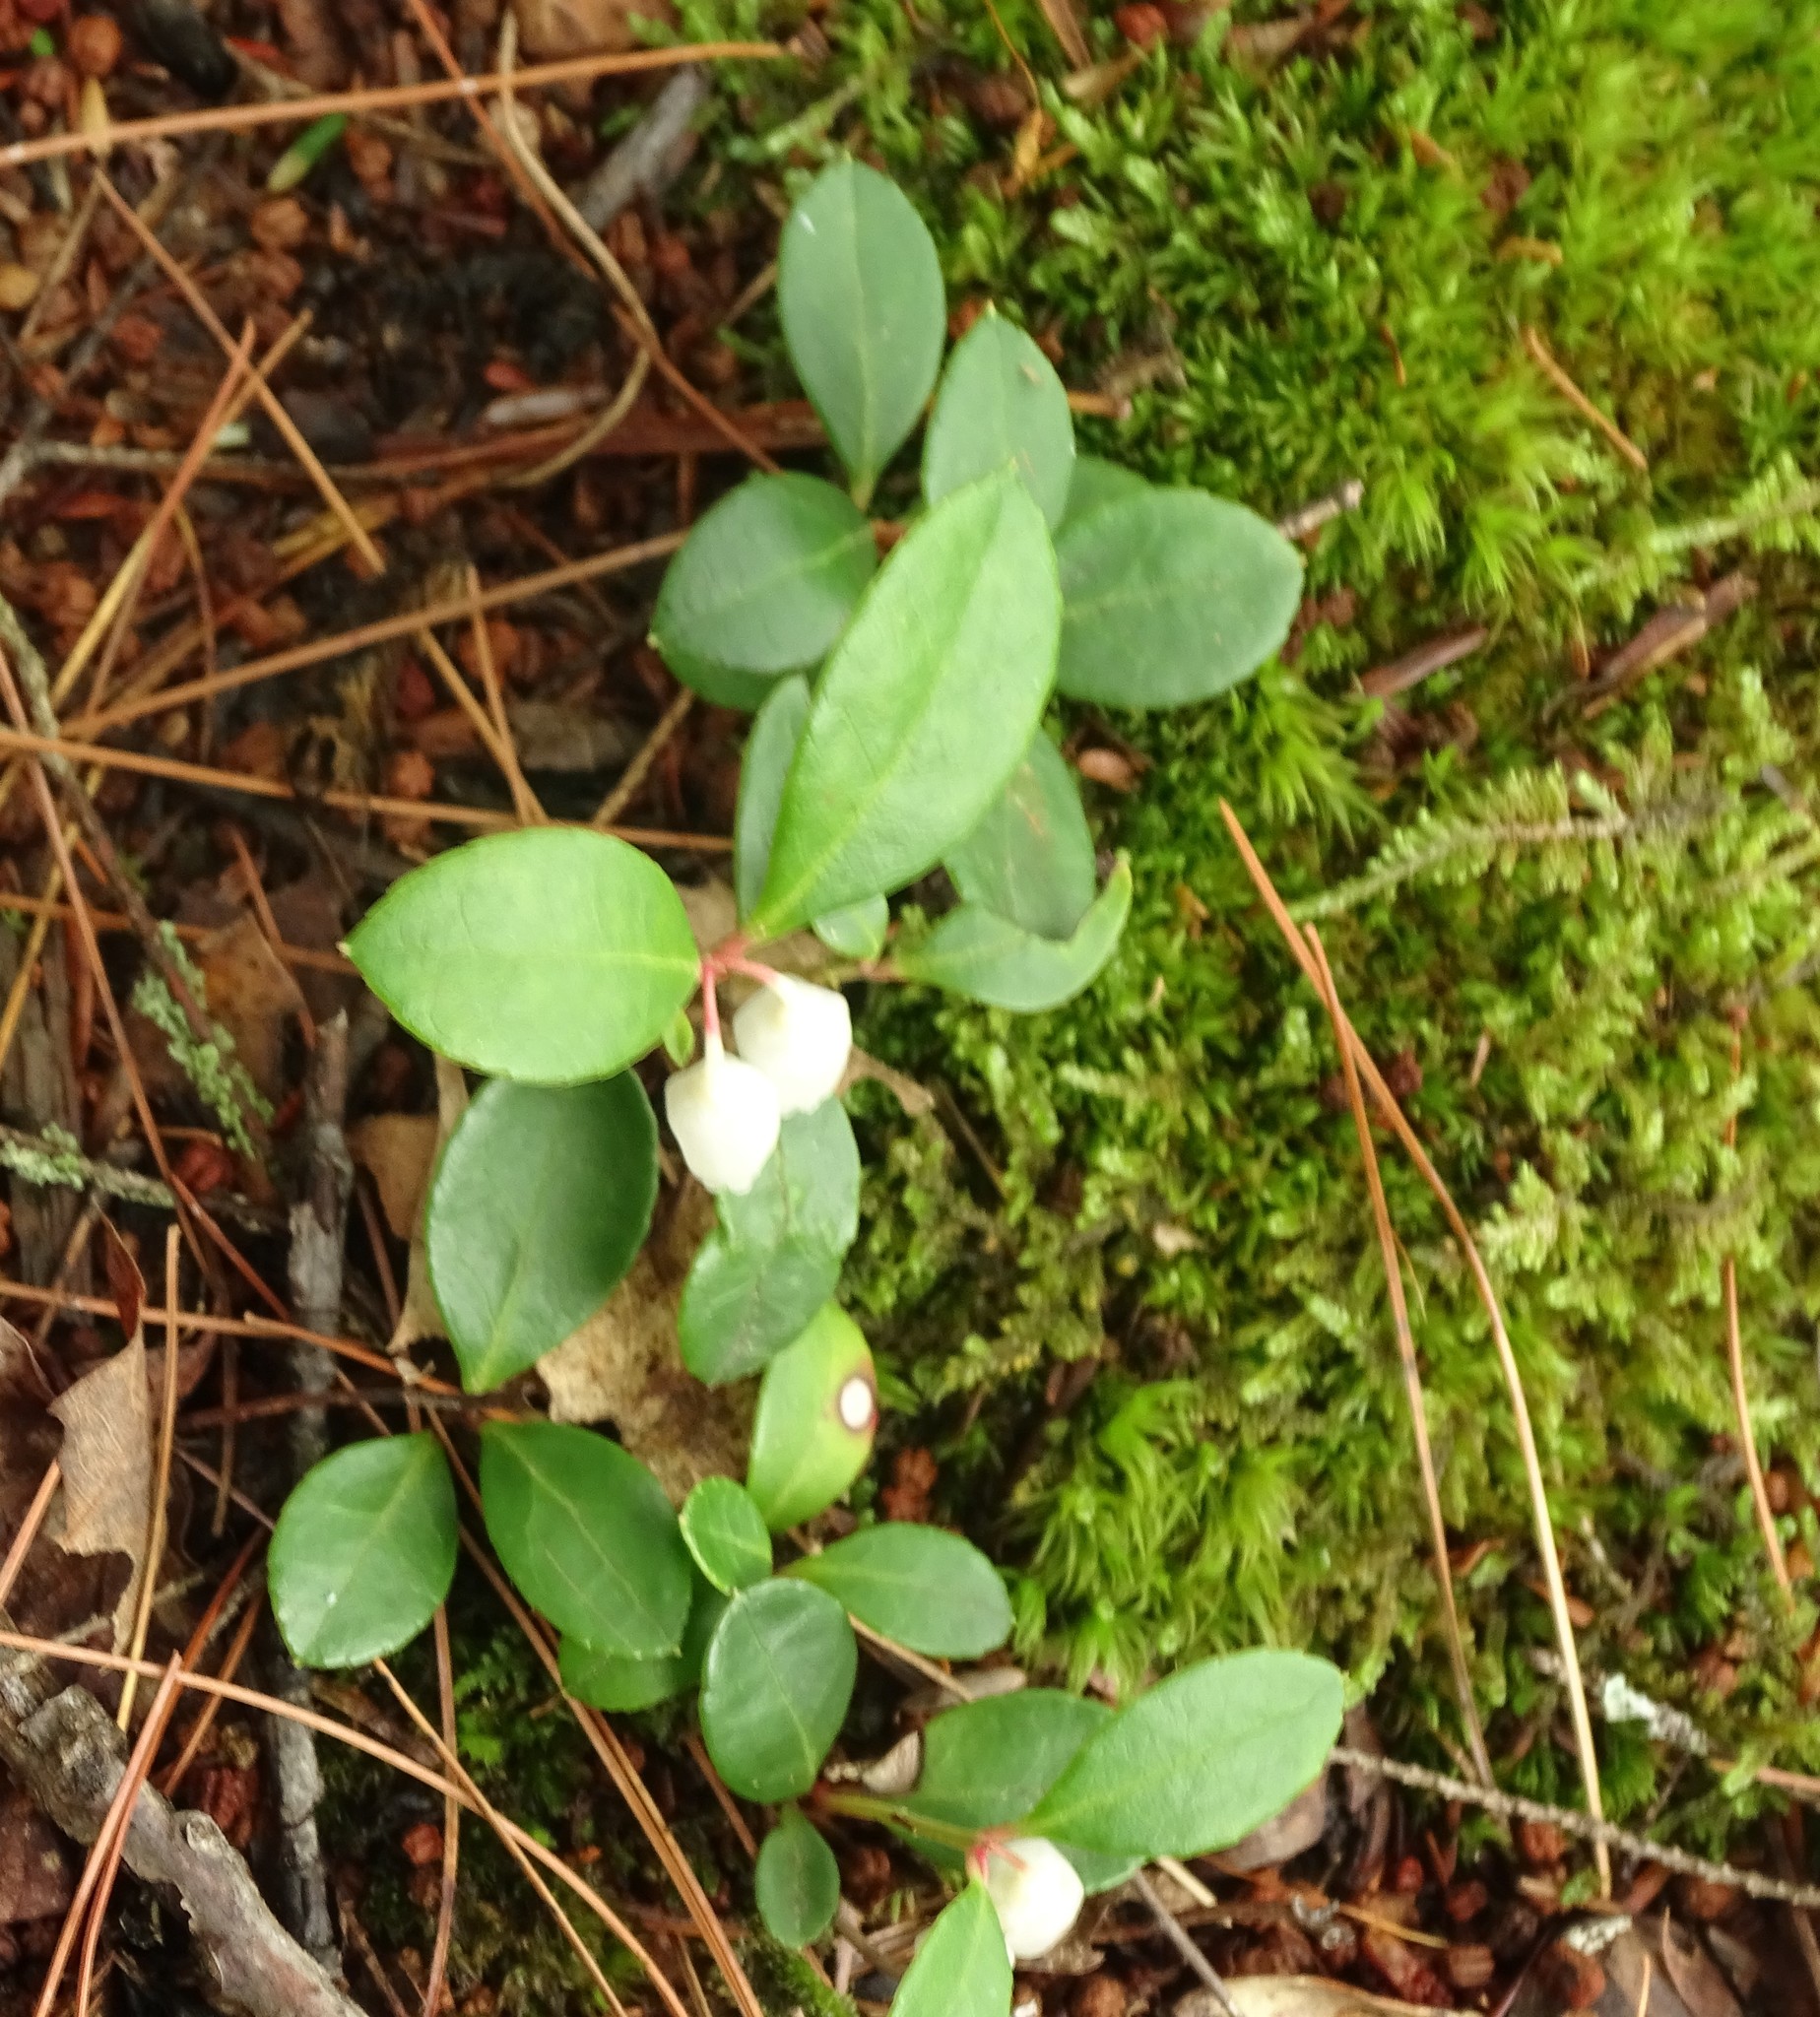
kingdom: Plantae
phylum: Tracheophyta
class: Magnoliopsida
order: Ericales
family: Ericaceae
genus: Gaultheria
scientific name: Gaultheria procumbens
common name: Checkerberry
